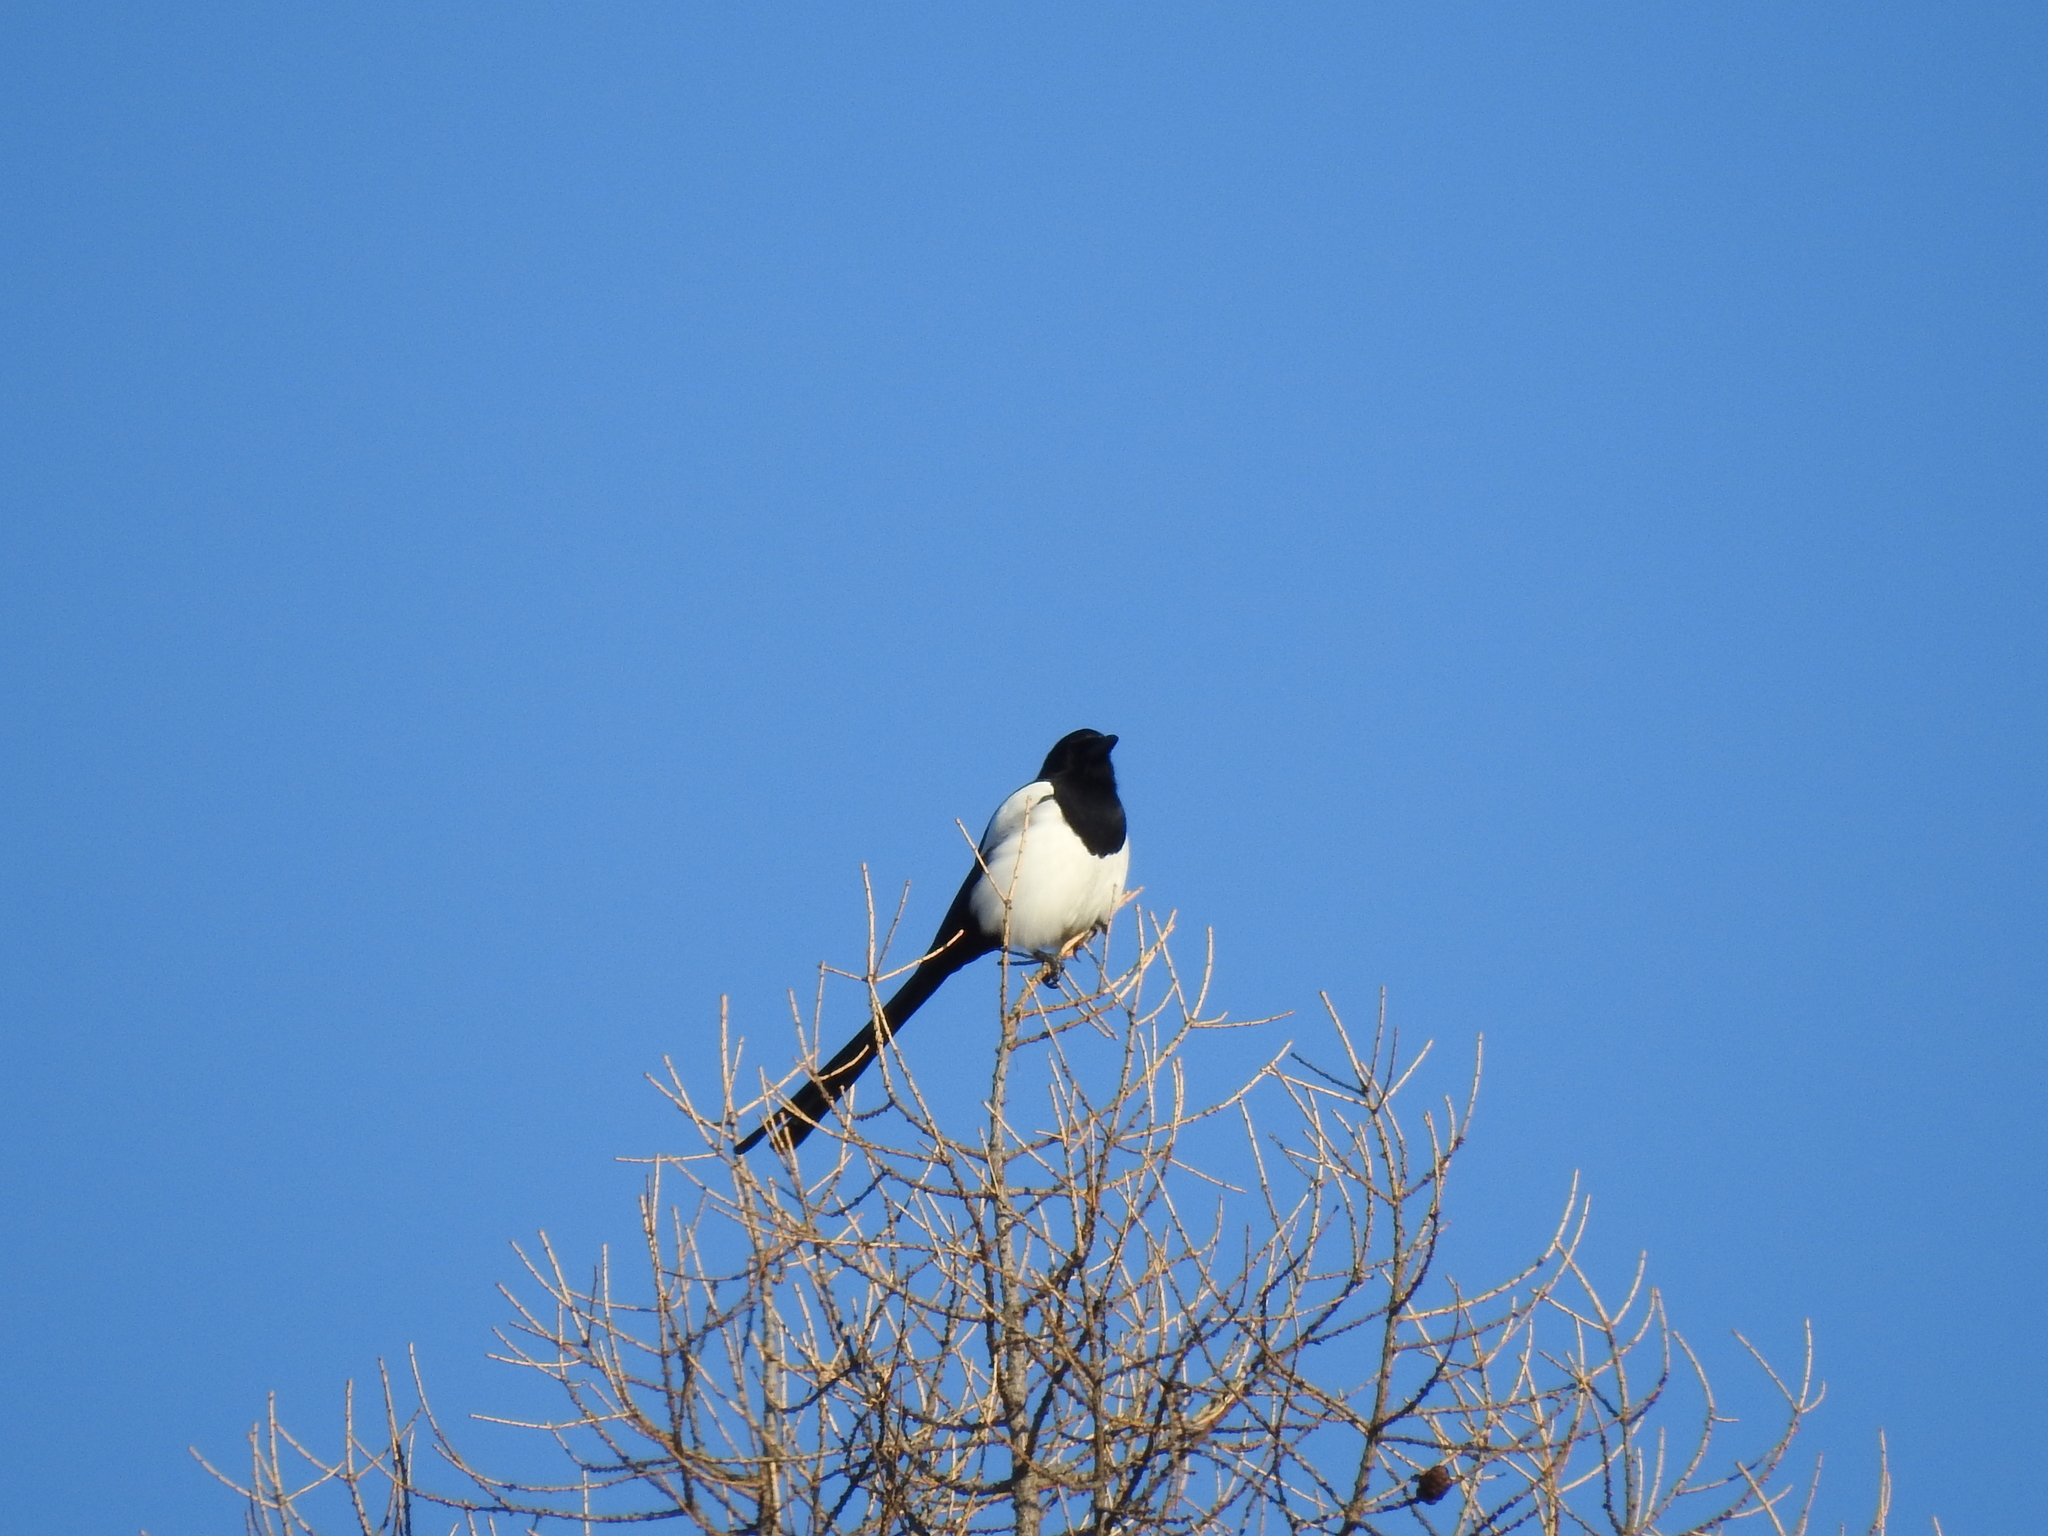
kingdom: Animalia
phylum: Chordata
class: Aves
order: Passeriformes
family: Corvidae
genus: Pica
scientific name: Pica pica
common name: Eurasian magpie
